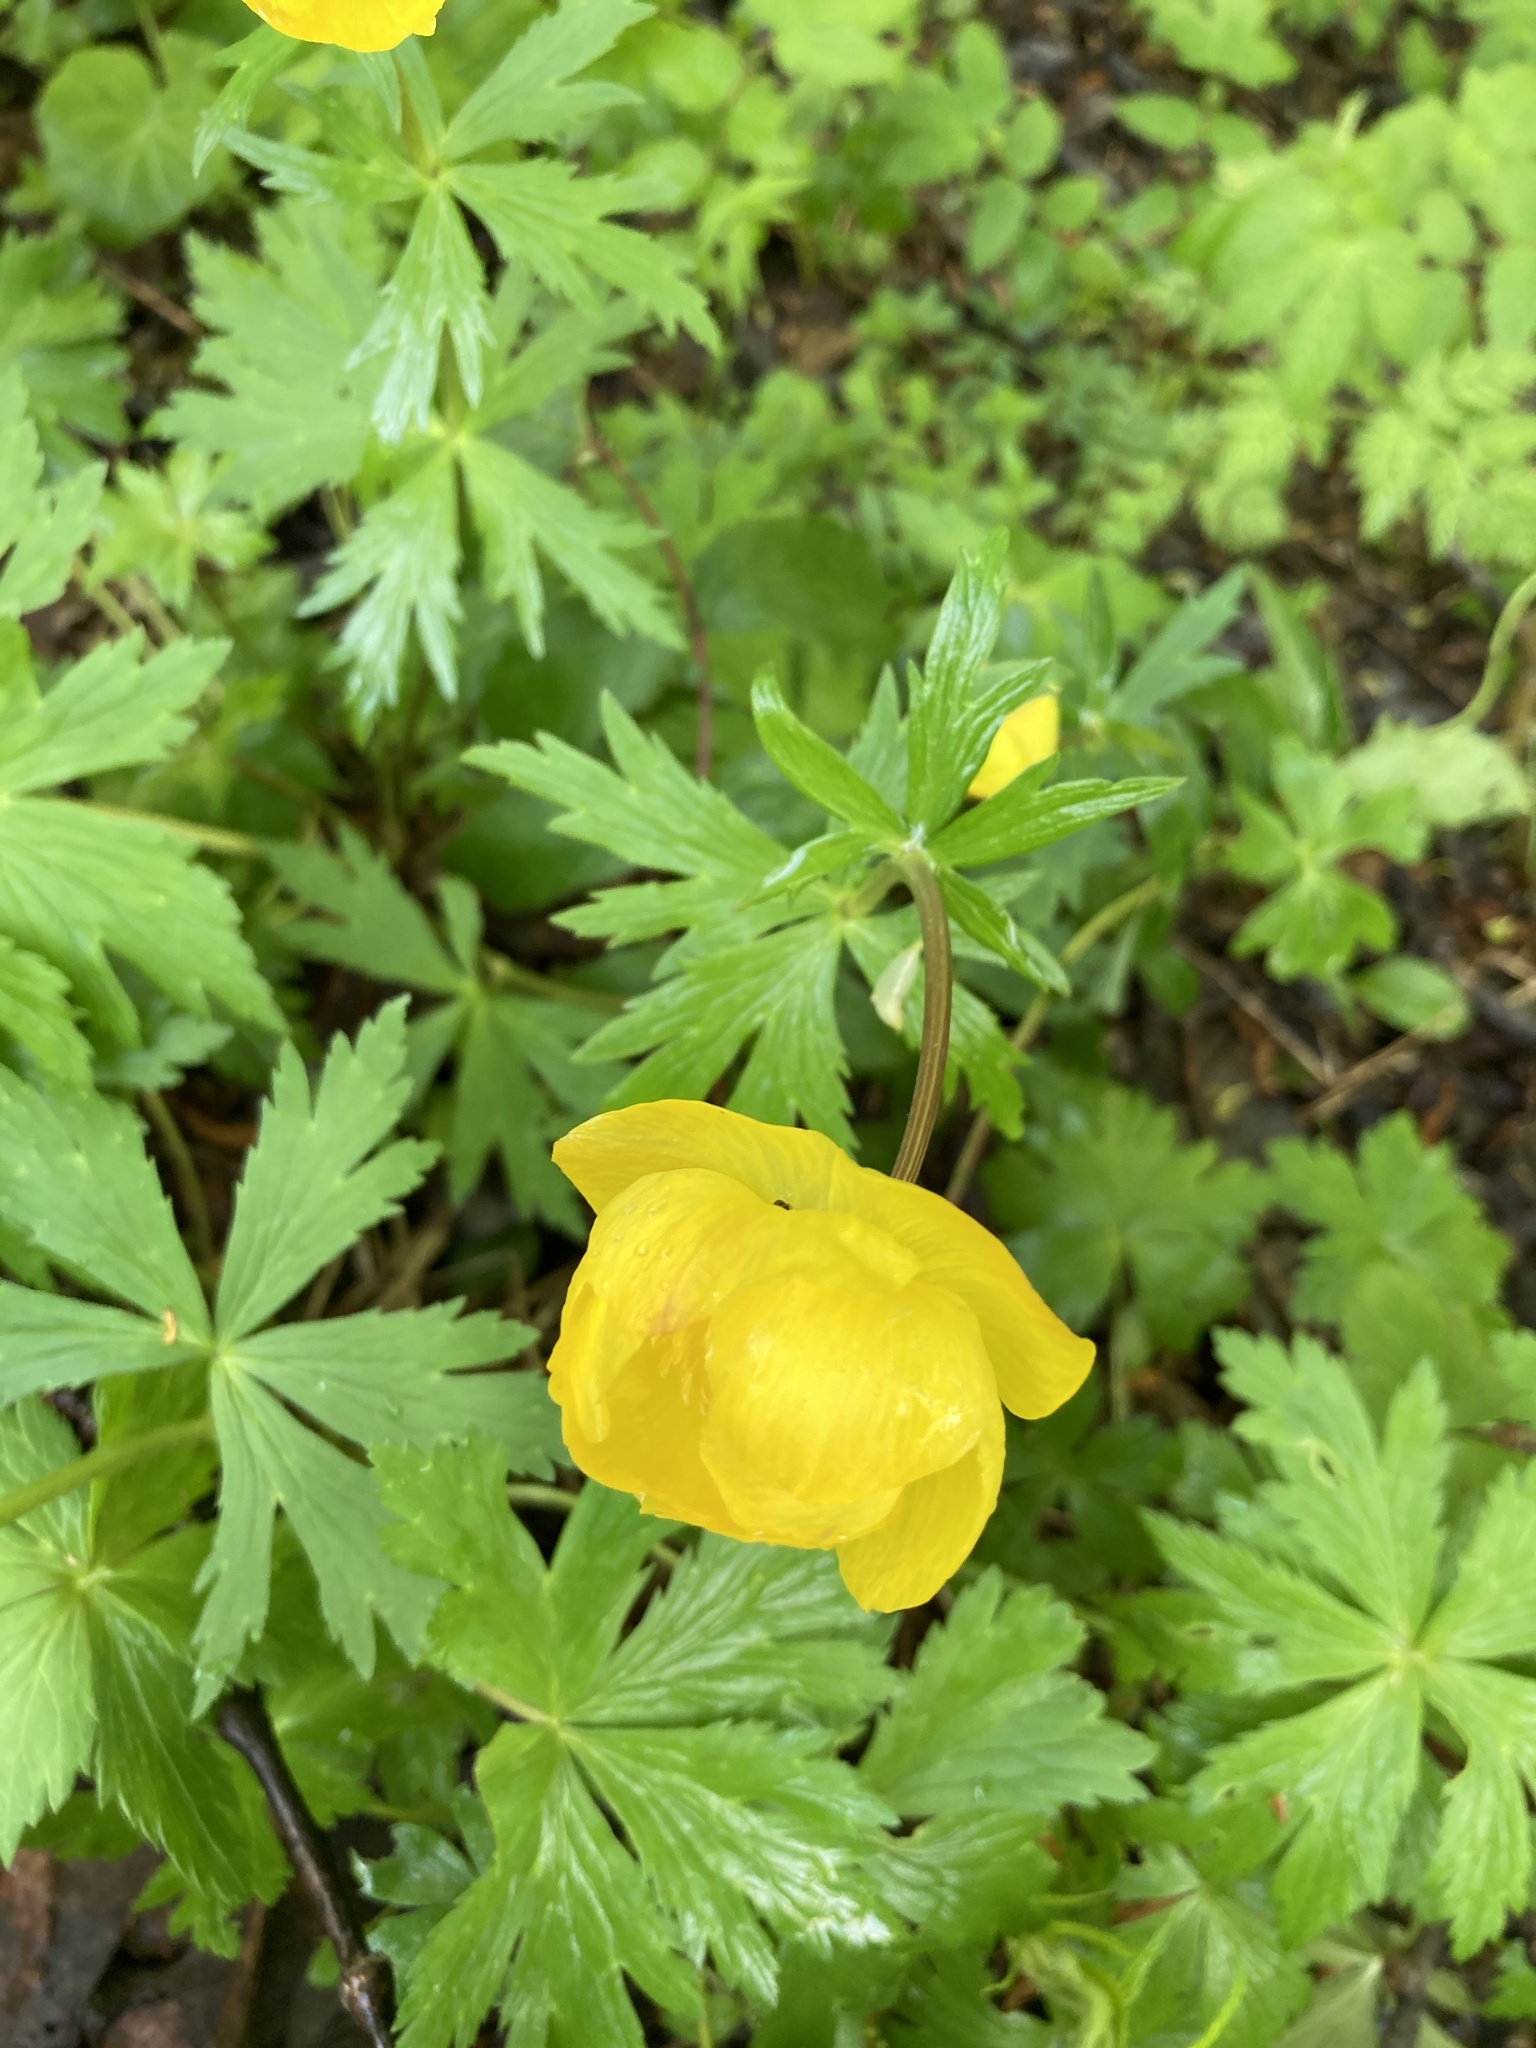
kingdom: Plantae
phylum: Tracheophyta
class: Magnoliopsida
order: Ranunculales
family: Ranunculaceae
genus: Trollius
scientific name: Trollius europaeus
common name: European globeflower
